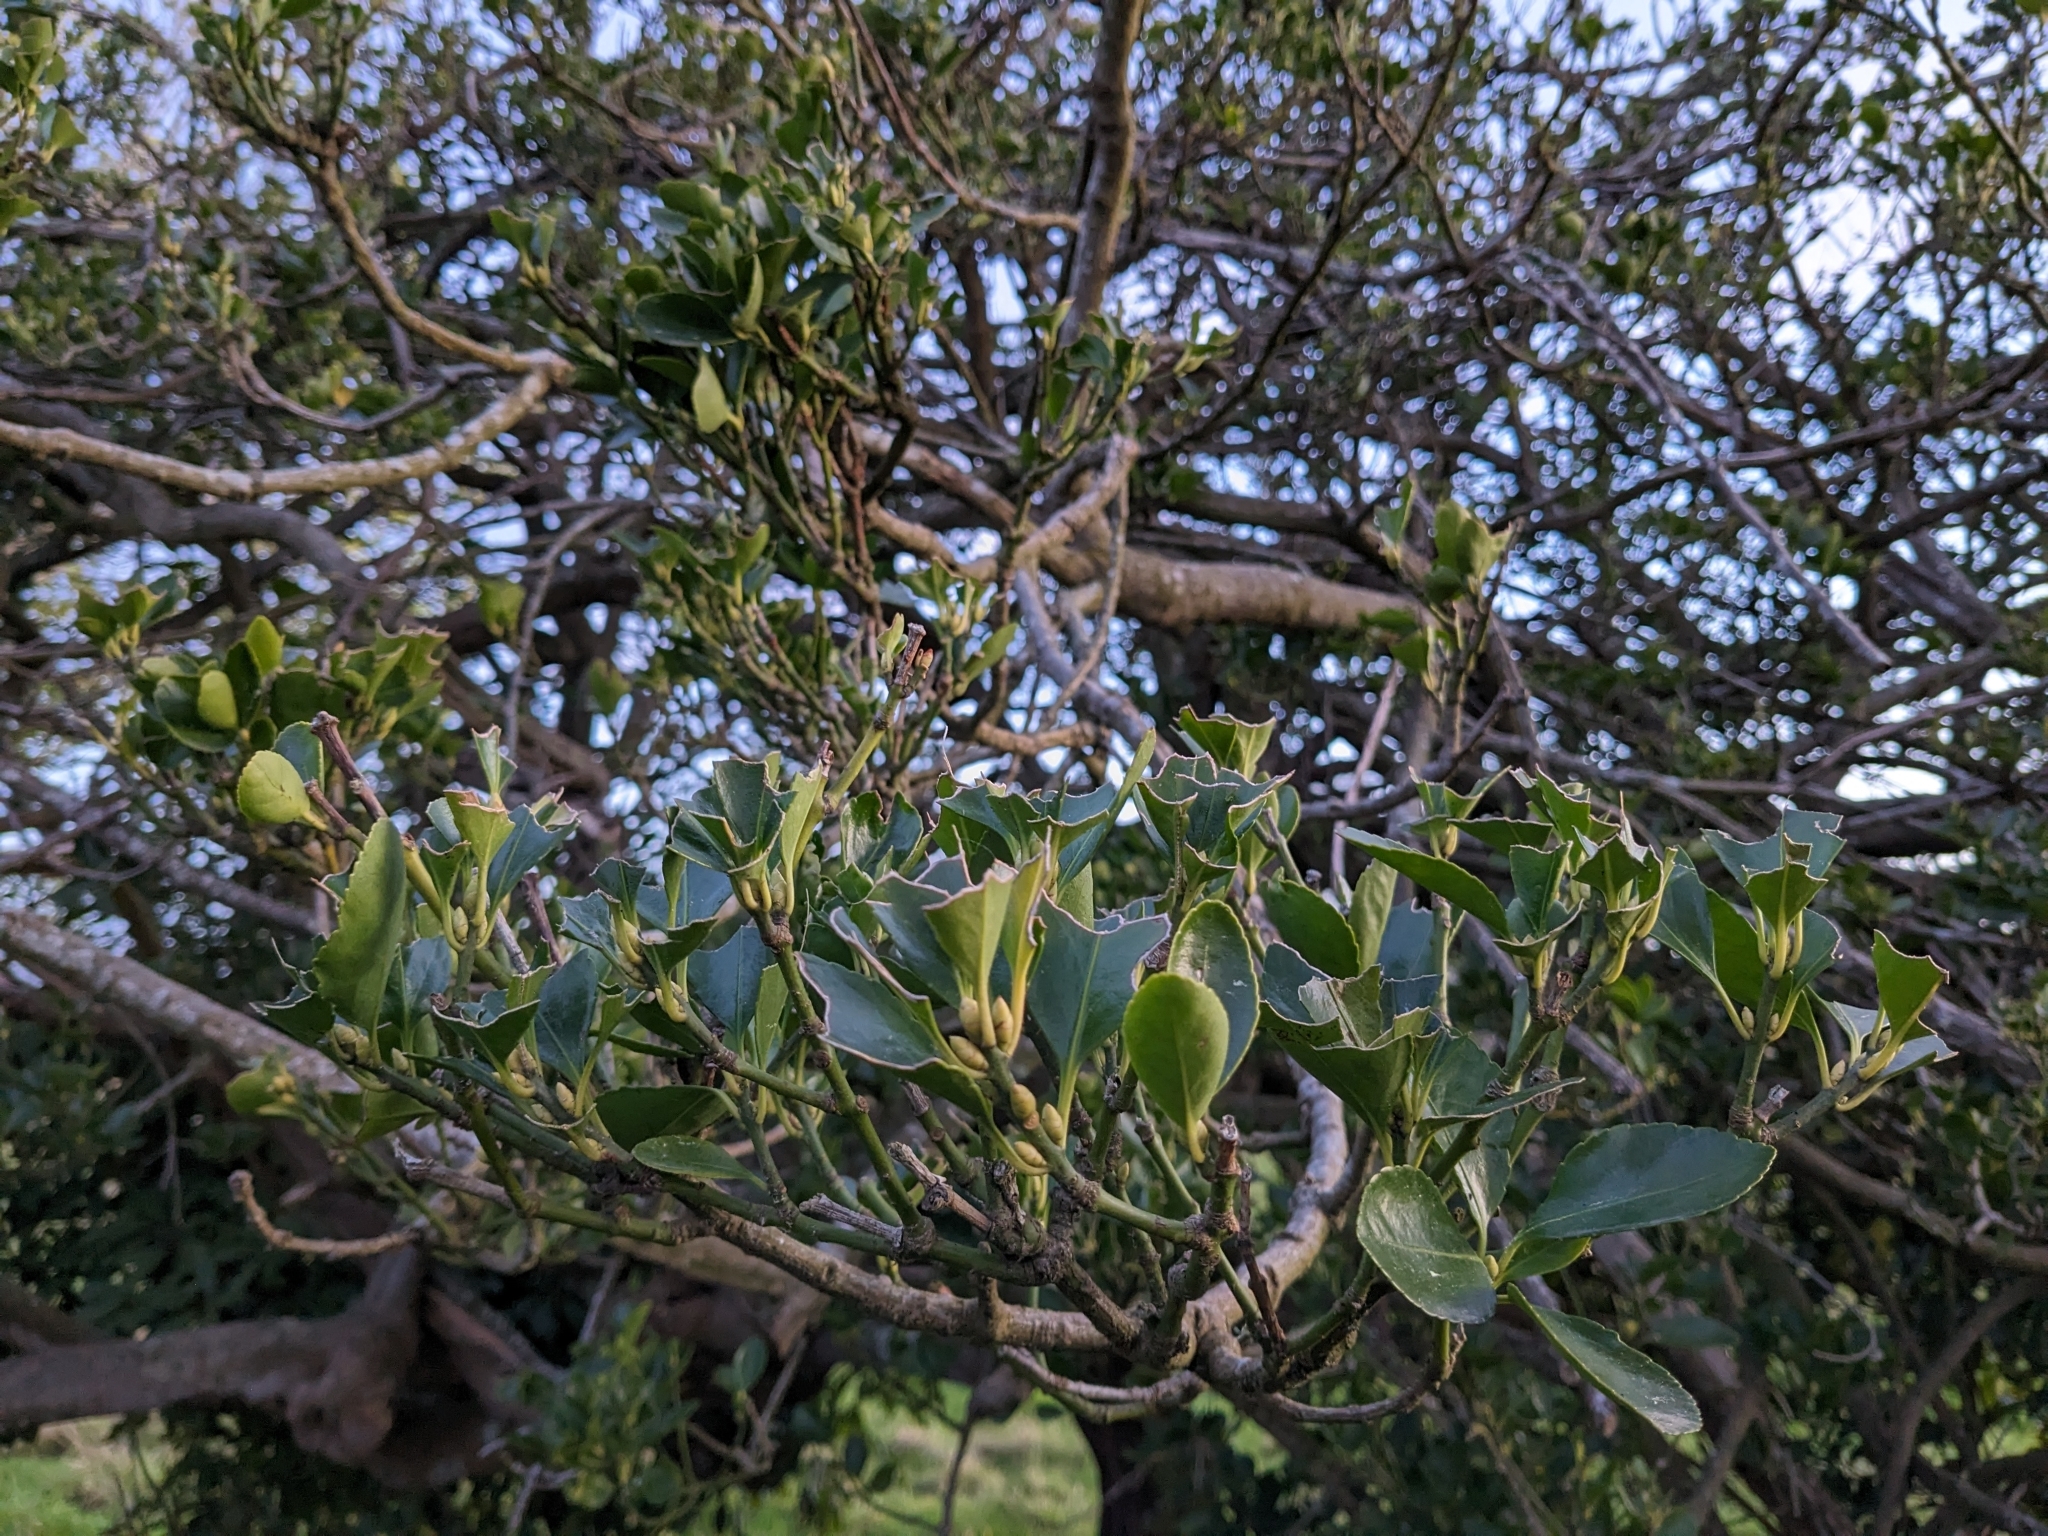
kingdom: Animalia
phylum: Chordata
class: Mammalia
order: Diprotodontia
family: Phalangeridae
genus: Trichosurus
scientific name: Trichosurus vulpecula
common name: Common brushtail
